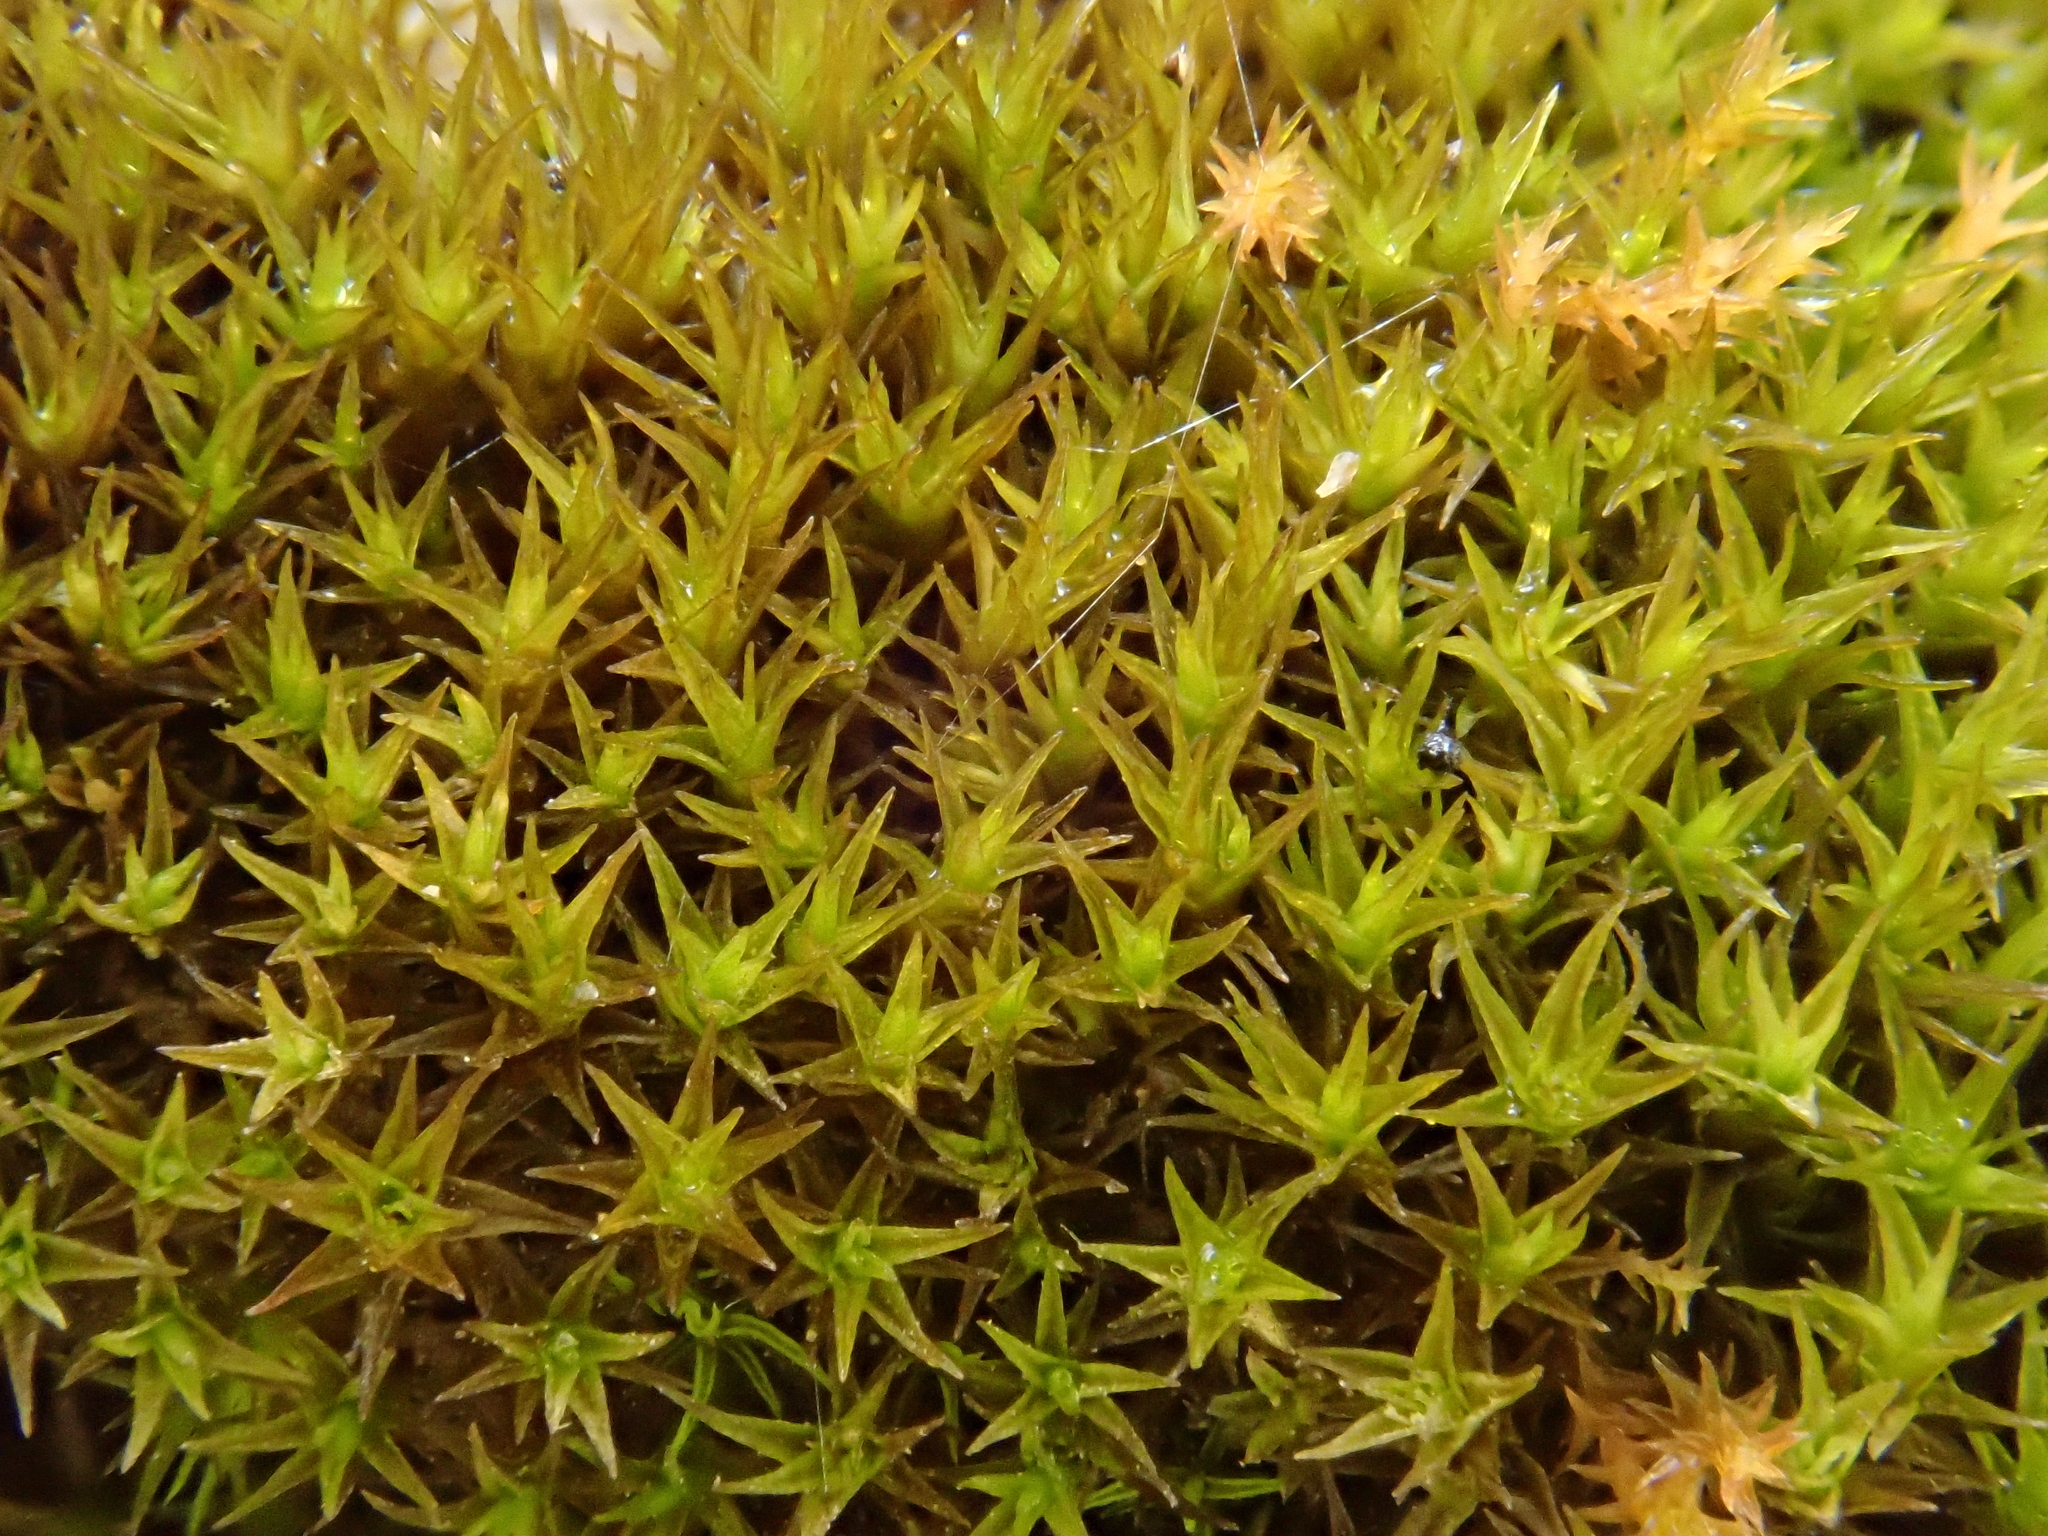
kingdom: Plantae
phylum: Bryophyta
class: Bryopsida
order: Pottiales
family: Pottiaceae
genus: Didymodon
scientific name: Didymodon rigidulus
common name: Rigid beard-moss
